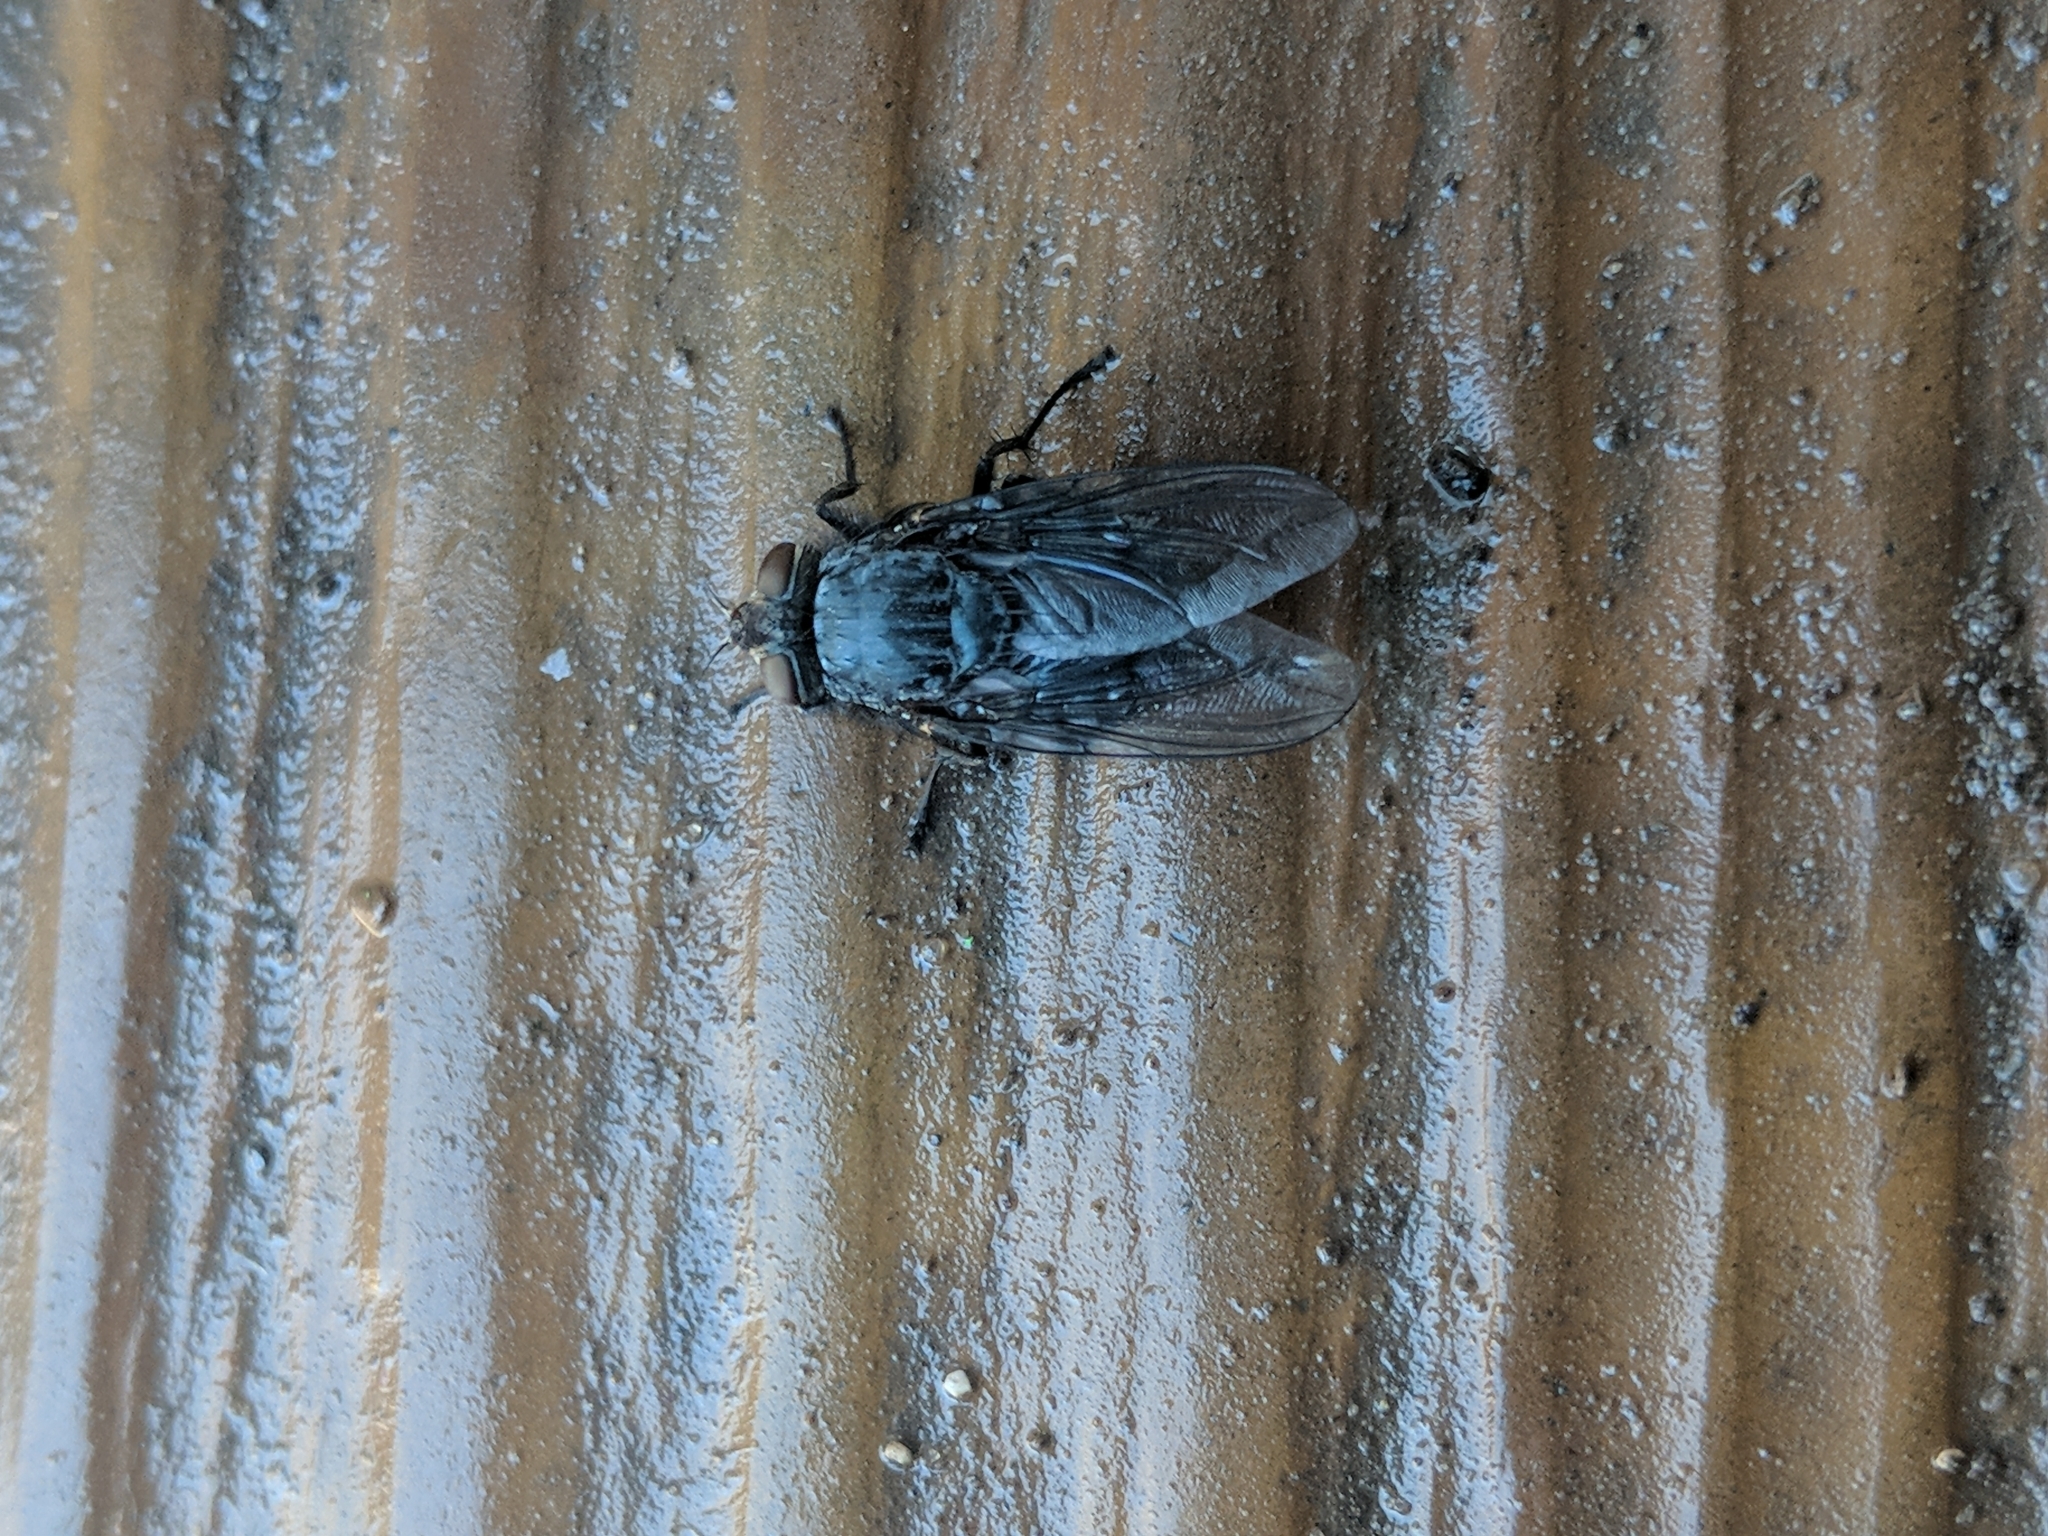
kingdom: Animalia
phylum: Arthropoda
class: Insecta
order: Diptera
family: Calliphoridae
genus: Calliphora
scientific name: Calliphora
